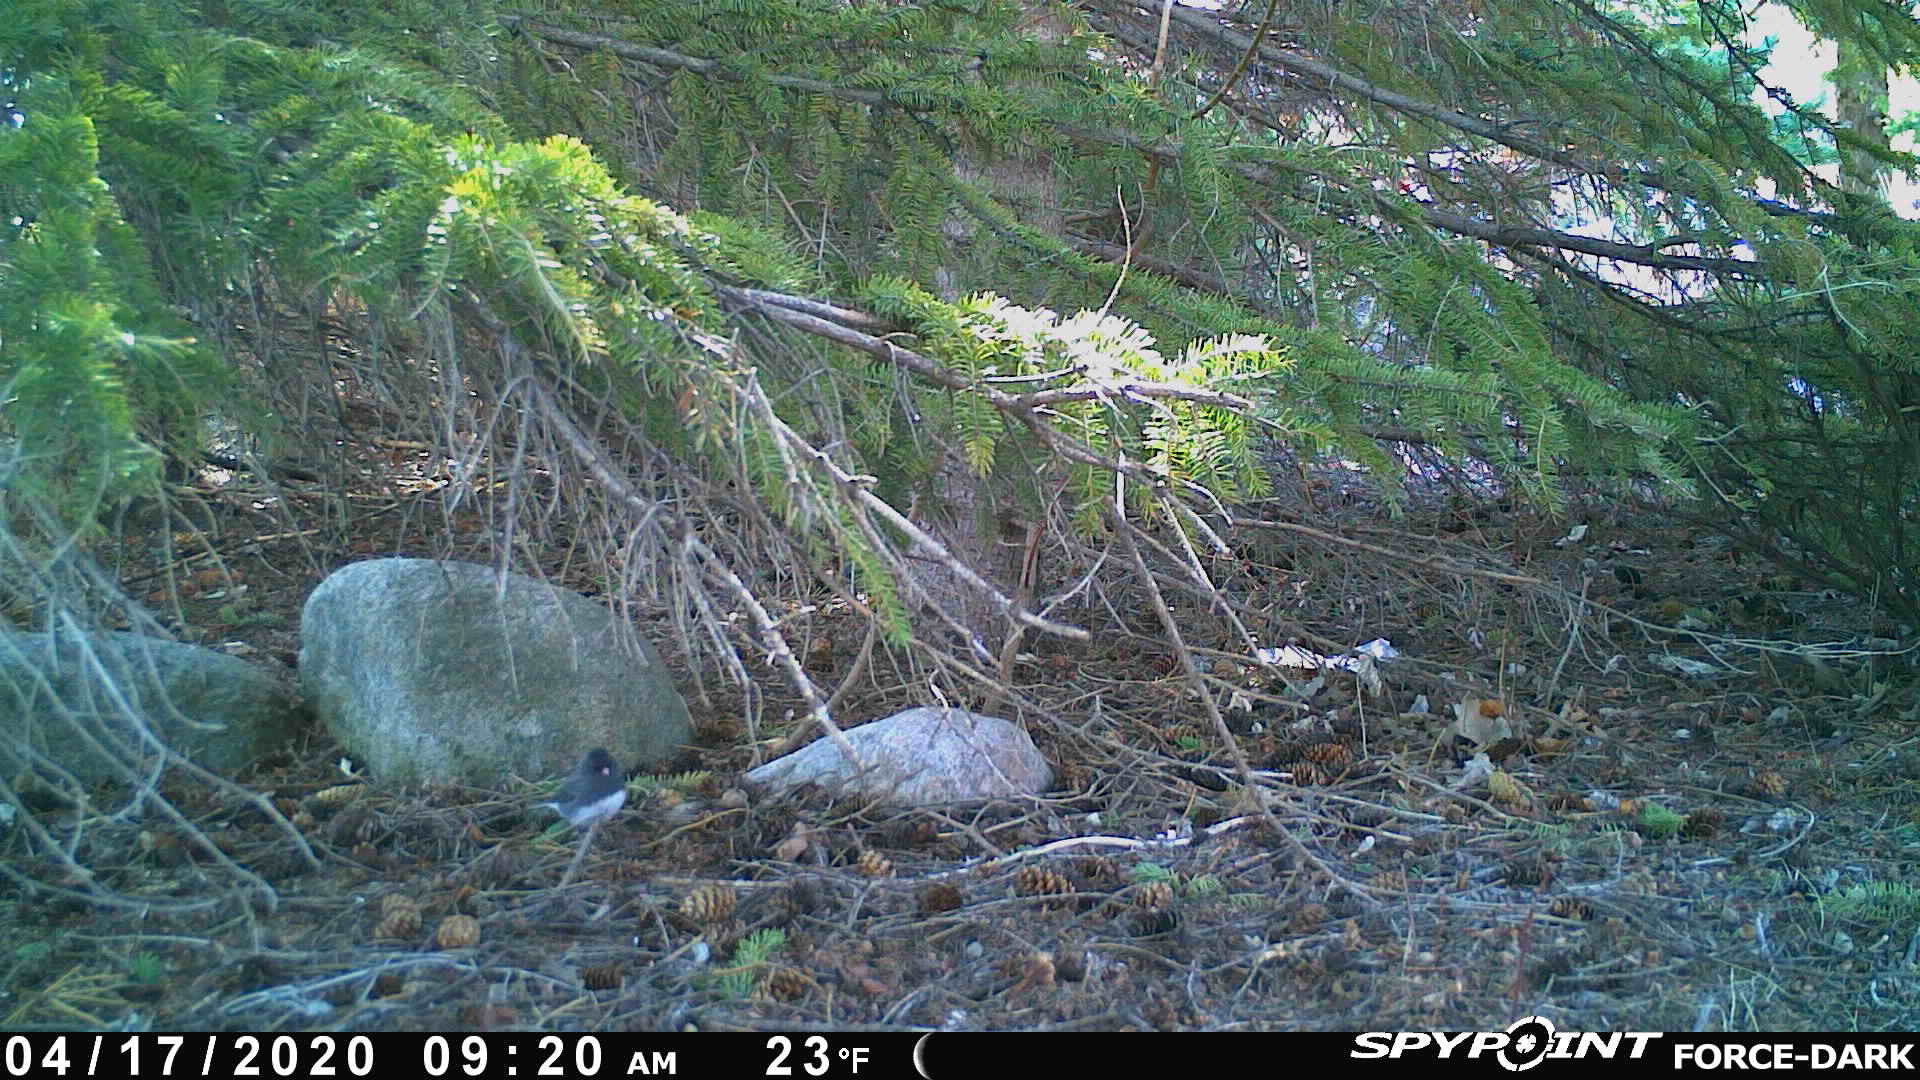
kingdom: Animalia
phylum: Chordata
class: Aves
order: Passeriformes
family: Passerellidae
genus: Junco
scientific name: Junco hyemalis
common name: Dark-eyed junco
